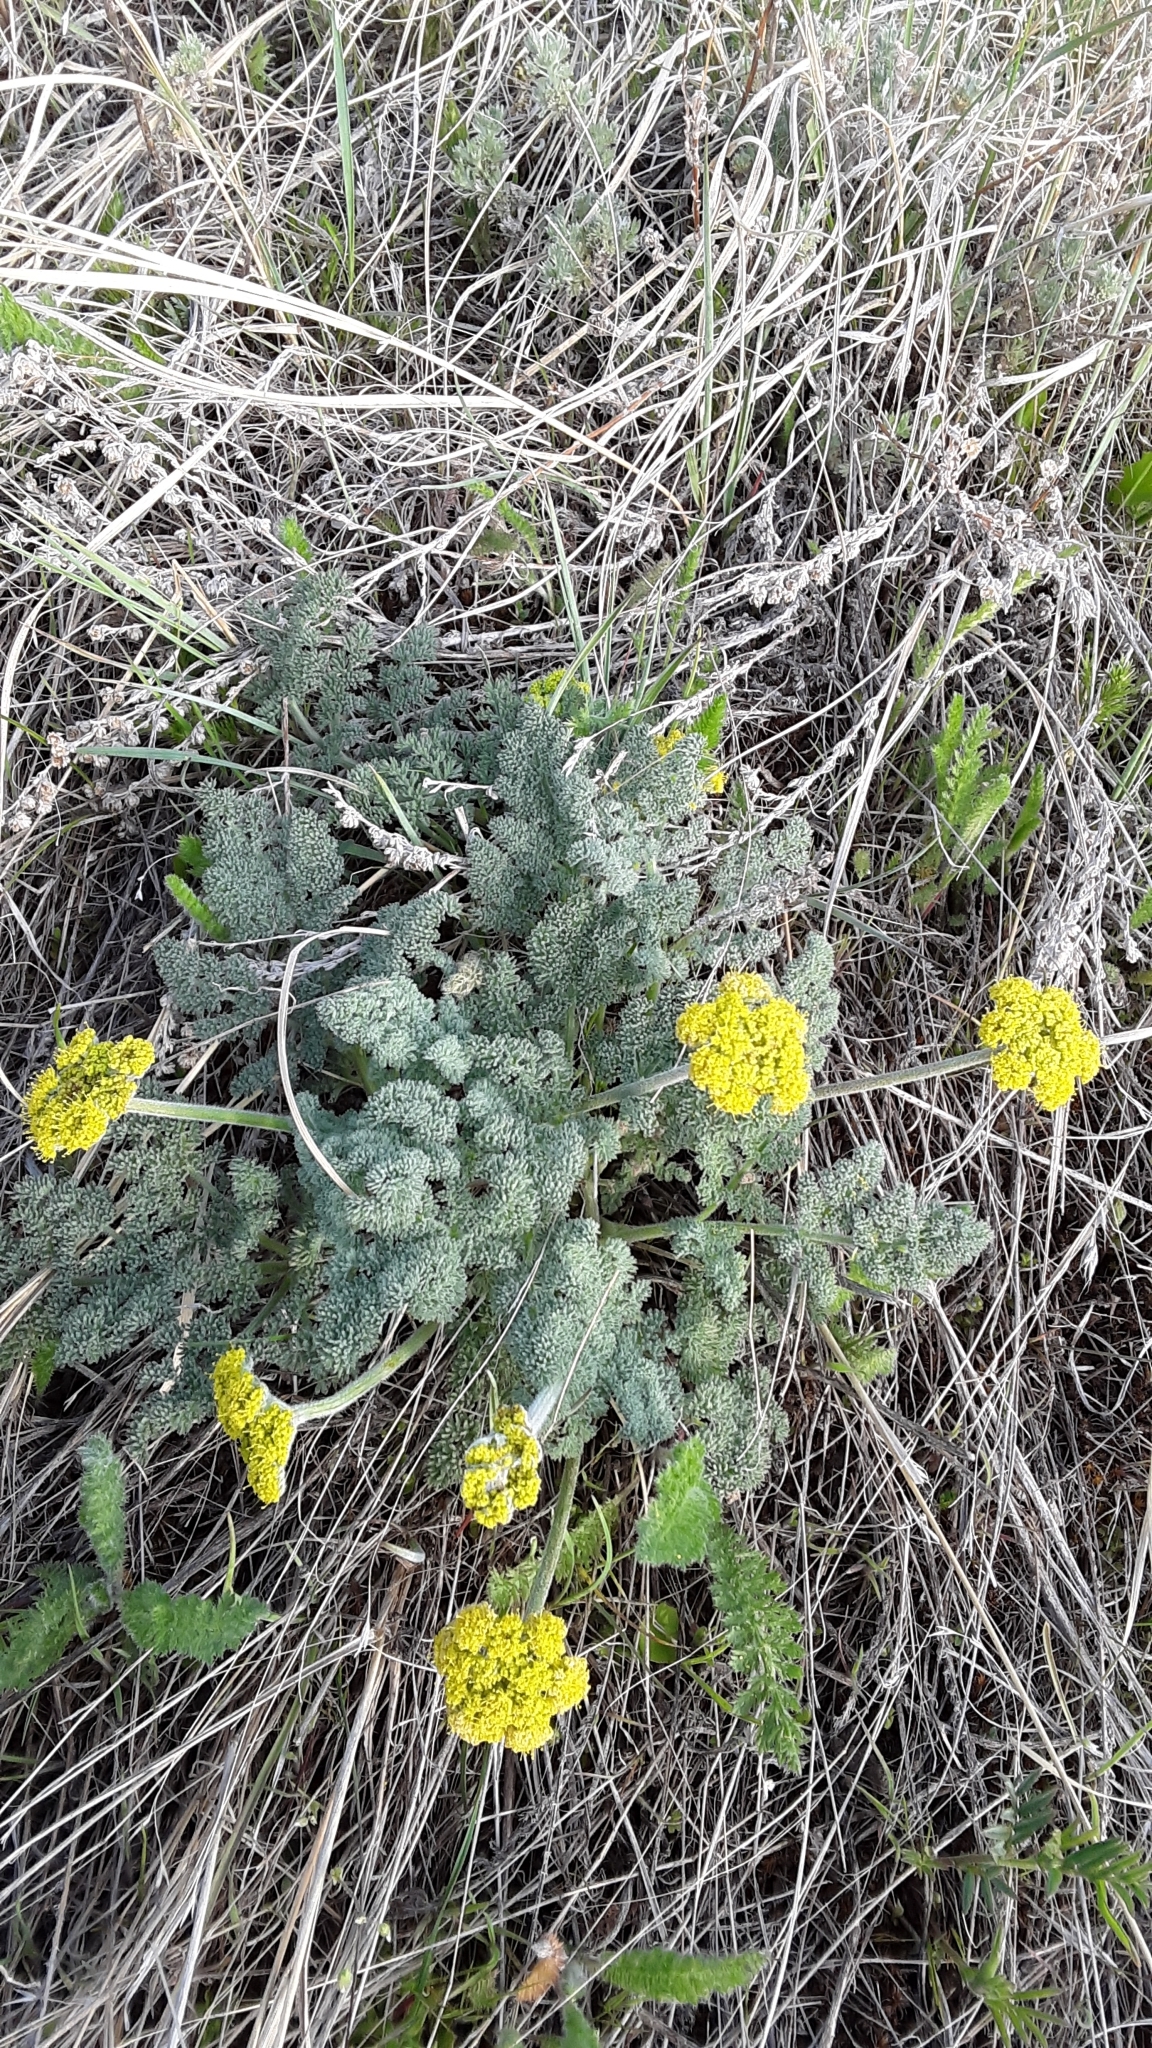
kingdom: Plantae
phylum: Tracheophyta
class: Magnoliopsida
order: Apiales
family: Apiaceae
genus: Lomatium
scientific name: Lomatium foeniculaceum
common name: Desert-parsley
